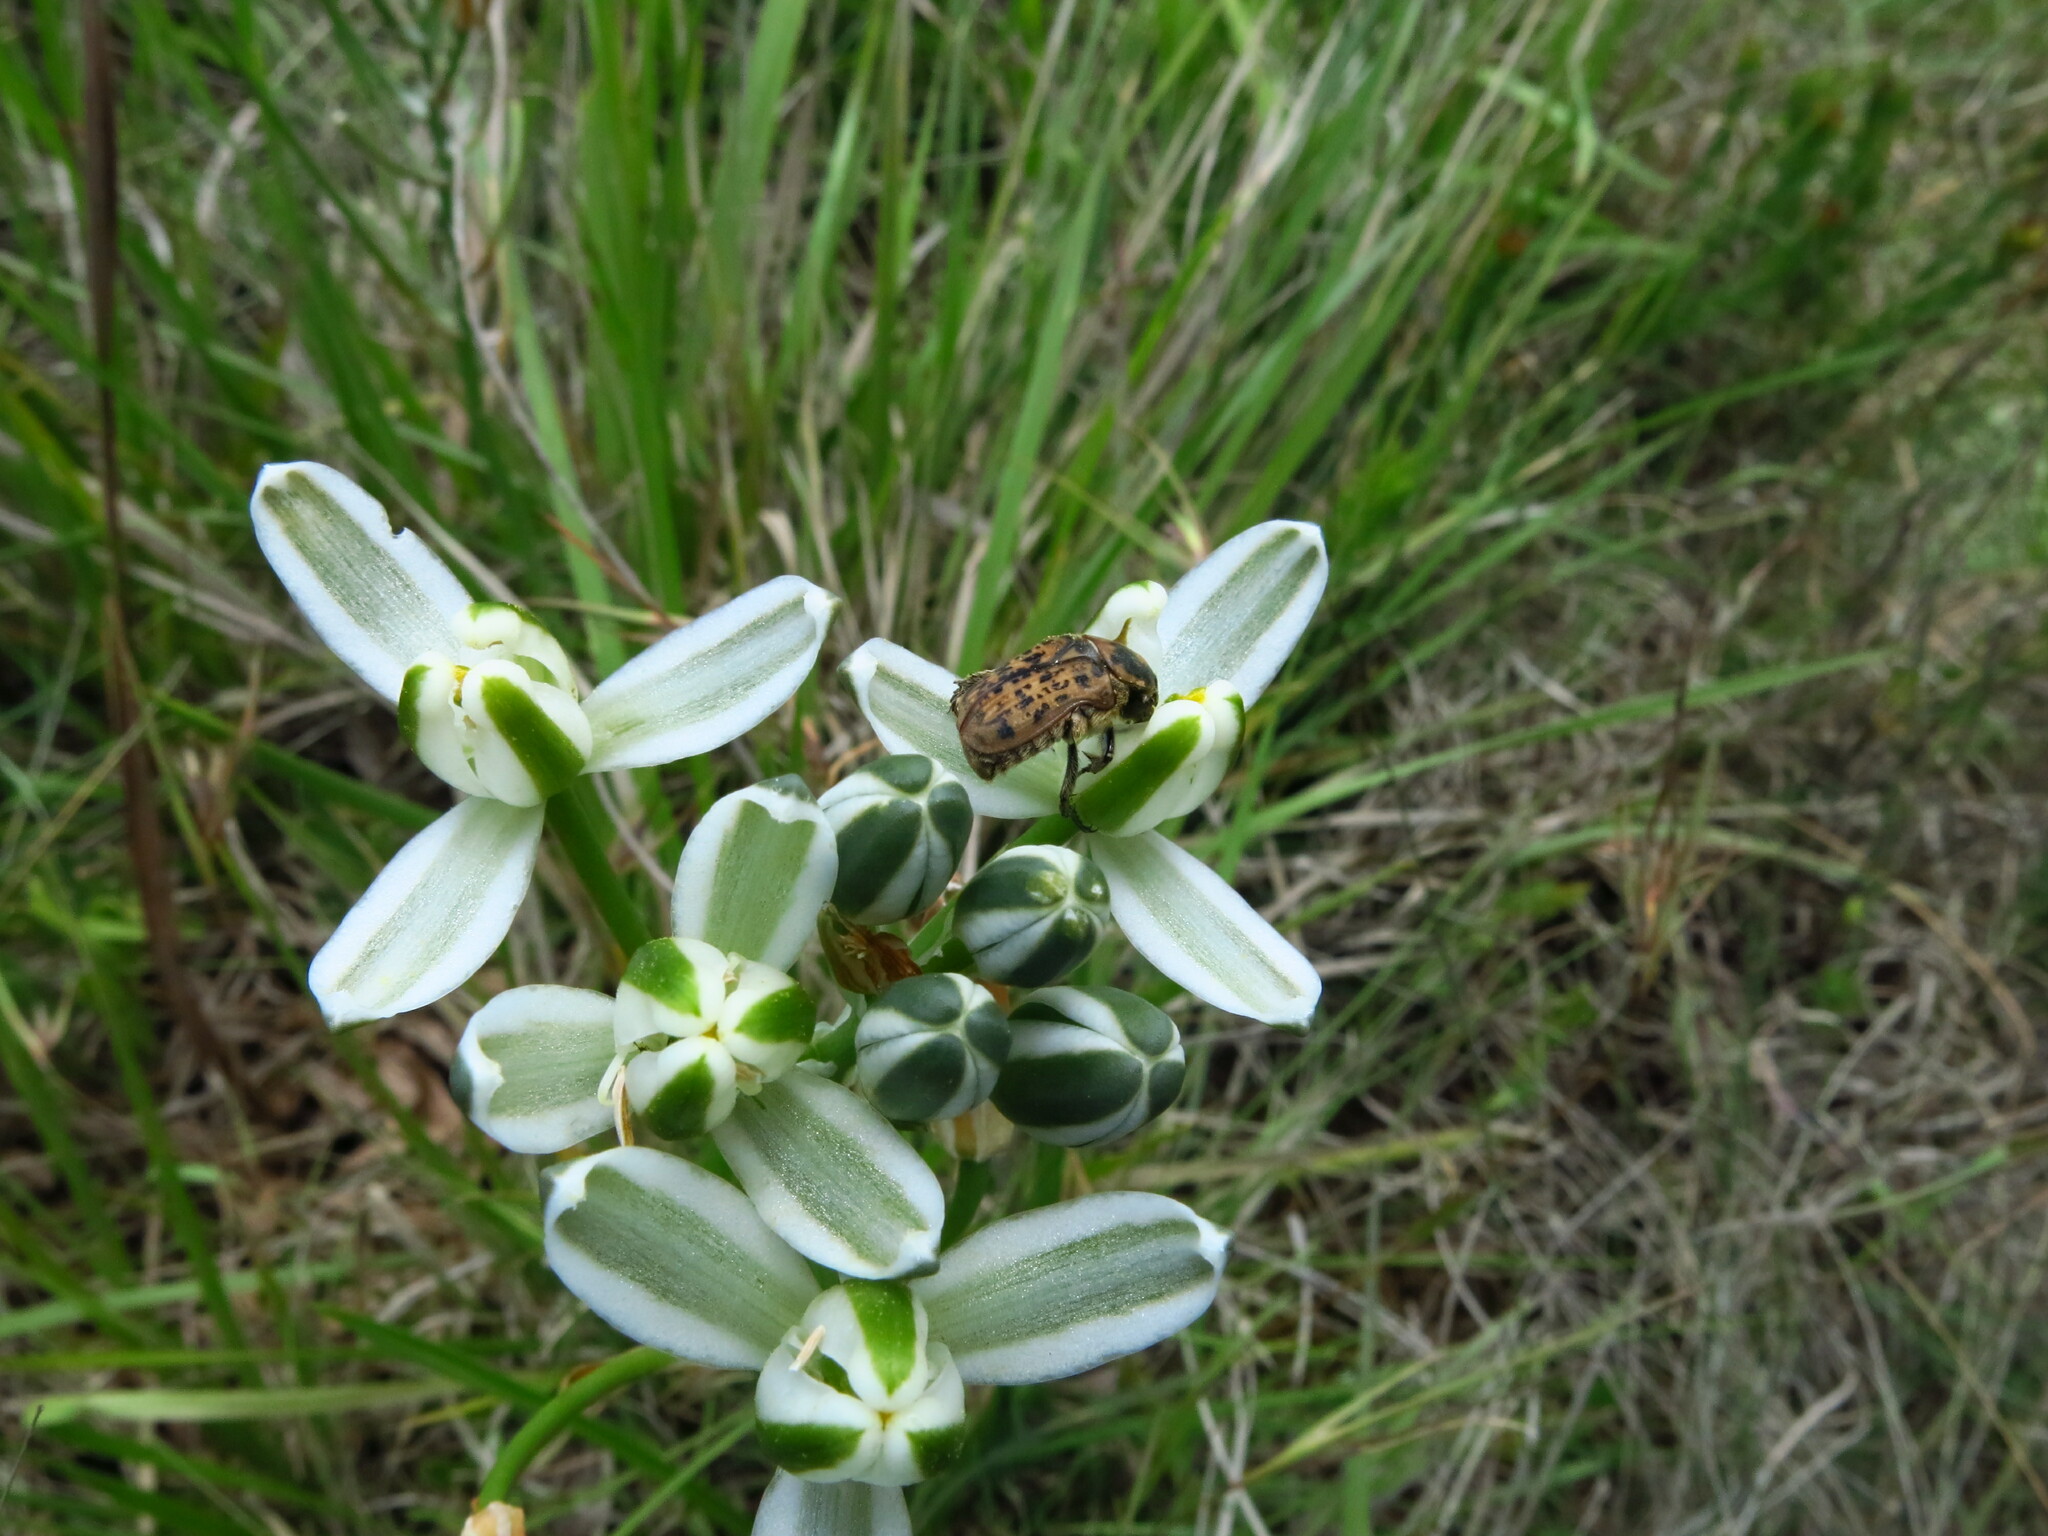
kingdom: Animalia
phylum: Arthropoda
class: Insecta
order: Coleoptera
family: Scarabaeidae
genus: Atrichelaphinis
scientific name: Atrichelaphinis tigrina
